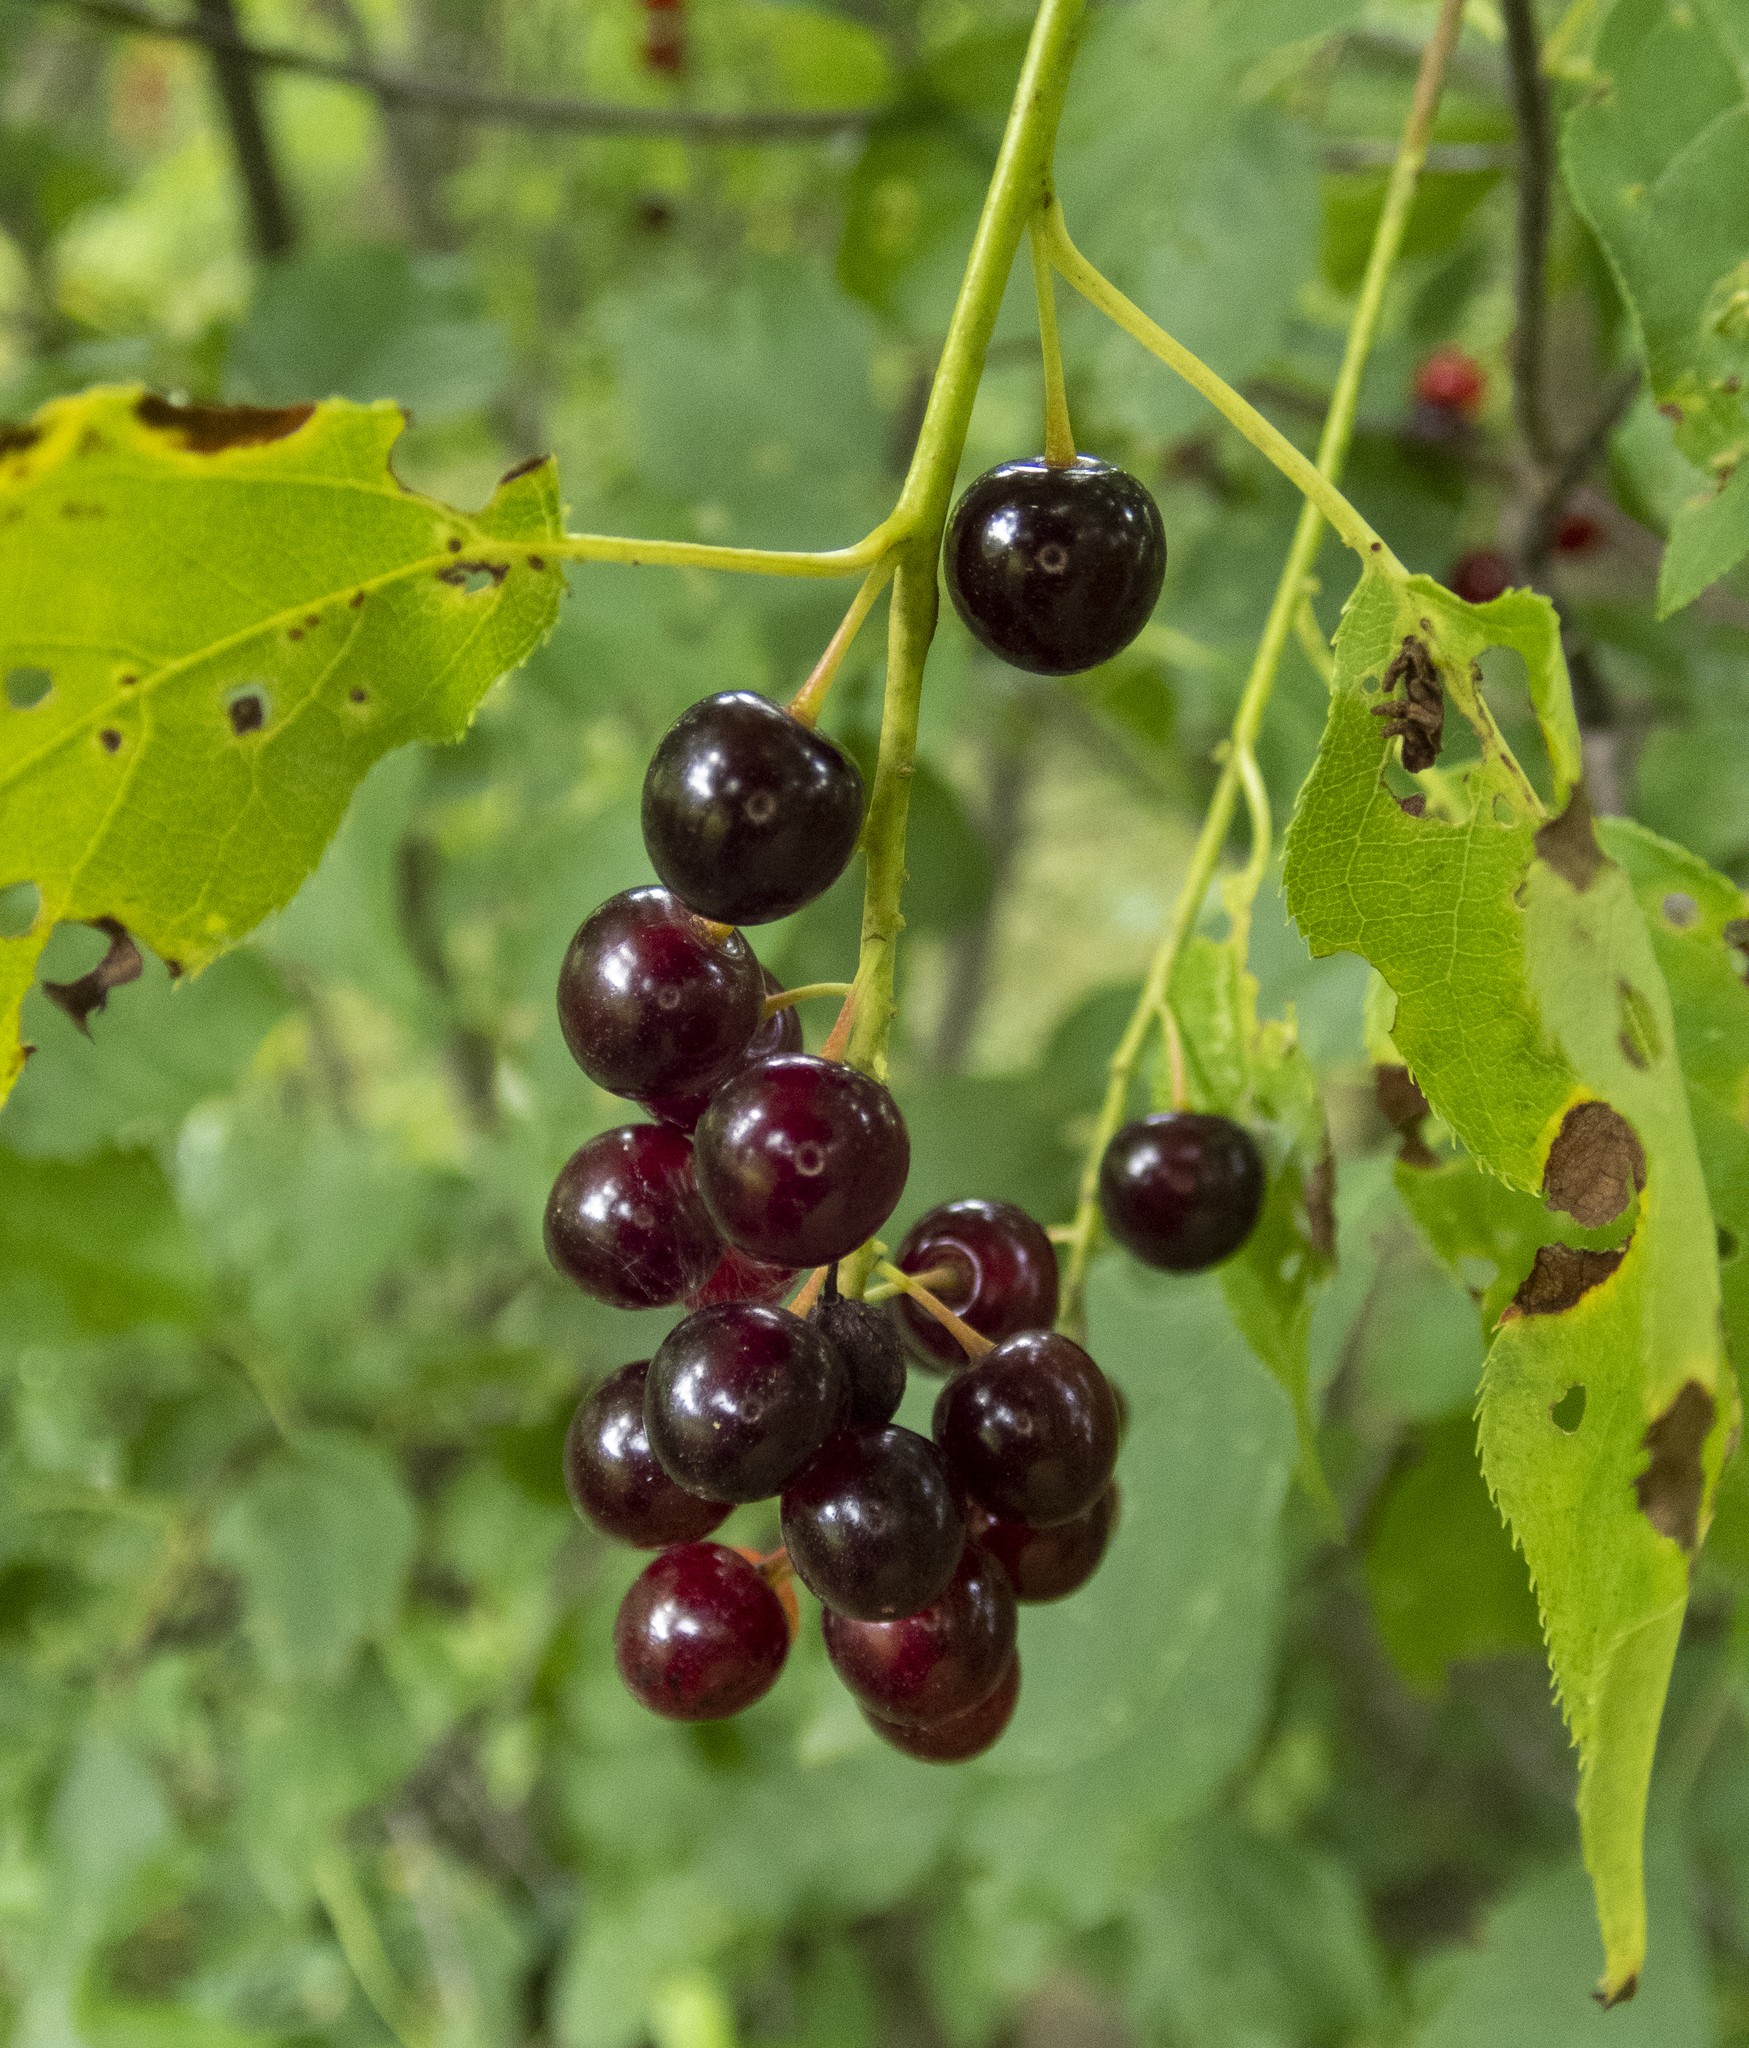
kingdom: Plantae
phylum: Tracheophyta
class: Magnoliopsida
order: Rosales
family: Rosaceae
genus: Prunus
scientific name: Prunus virginiana
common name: Chokecherry
